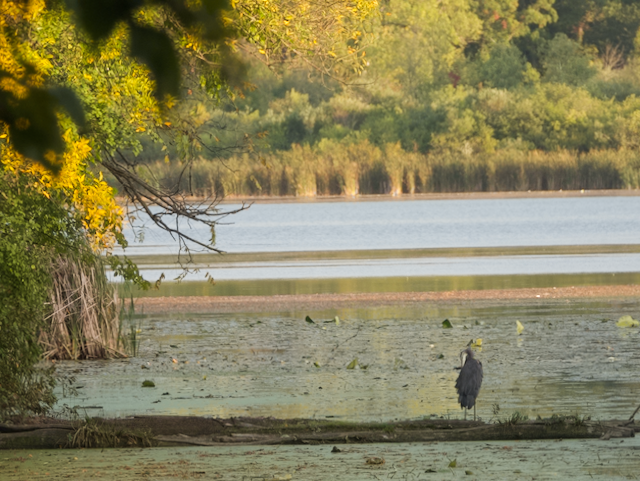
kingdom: Animalia
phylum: Chordata
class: Aves
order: Pelecaniformes
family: Ardeidae
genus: Ardea
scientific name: Ardea herodias
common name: Great blue heron
